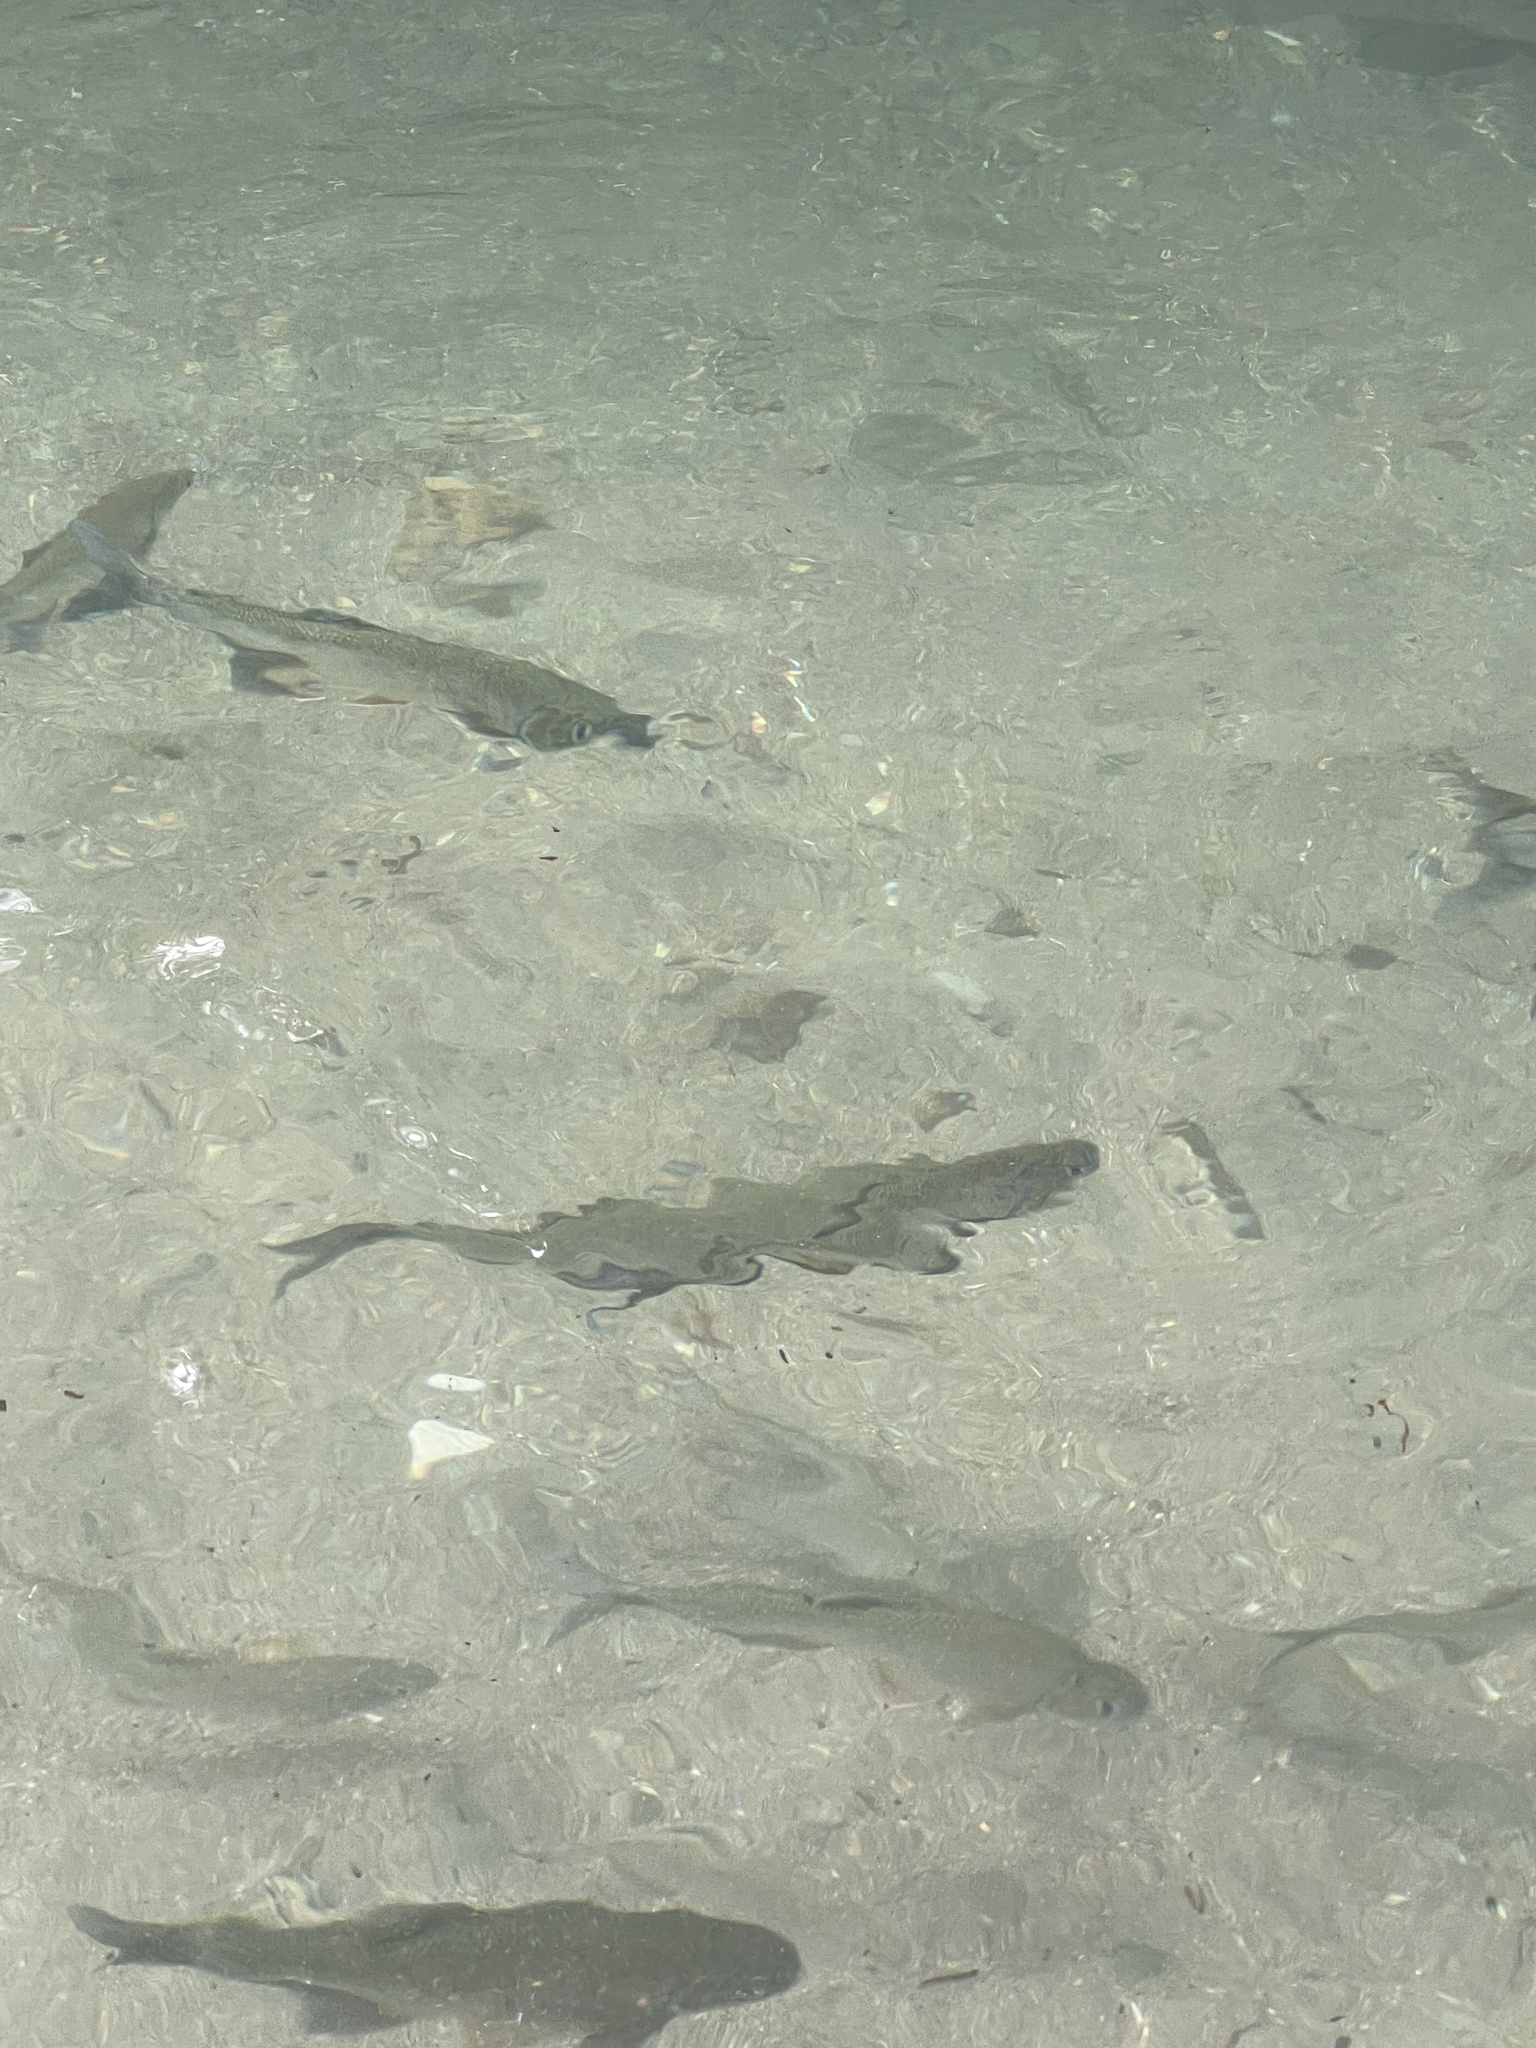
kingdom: Animalia
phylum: Chordata
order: Characiformes
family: Bryconidae
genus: Brycon
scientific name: Brycon costaricensis
